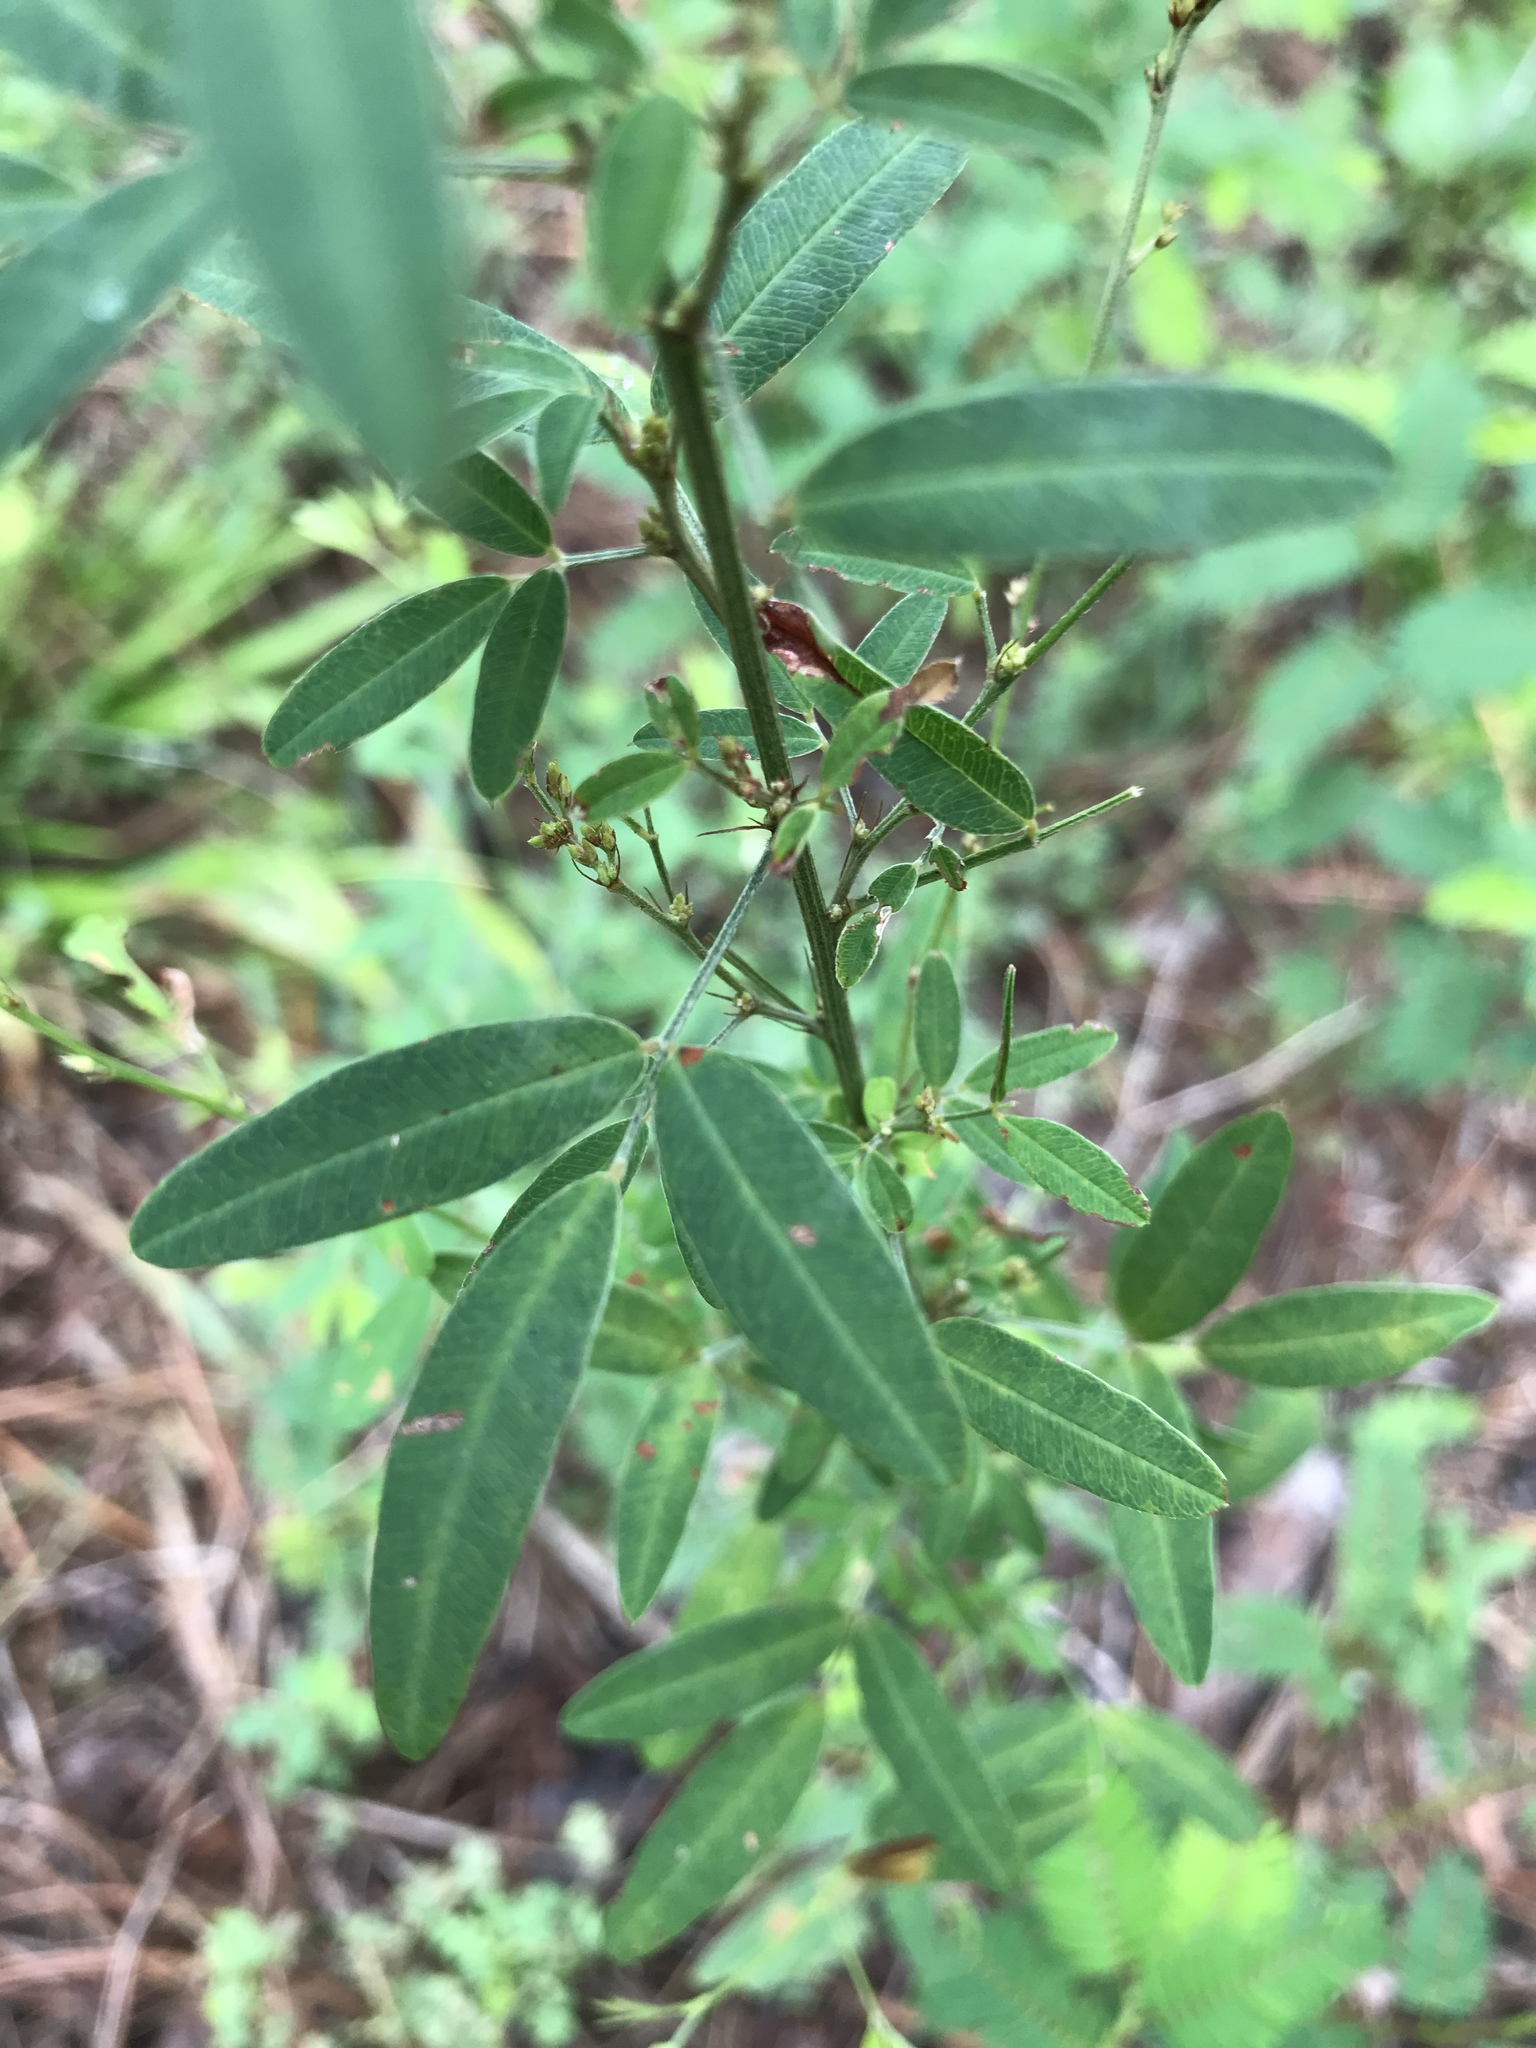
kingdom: Plantae
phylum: Tracheophyta
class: Magnoliopsida
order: Fabales
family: Fabaceae
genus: Lespedeza
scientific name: Lespedeza virginica
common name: Slender bush-clover
